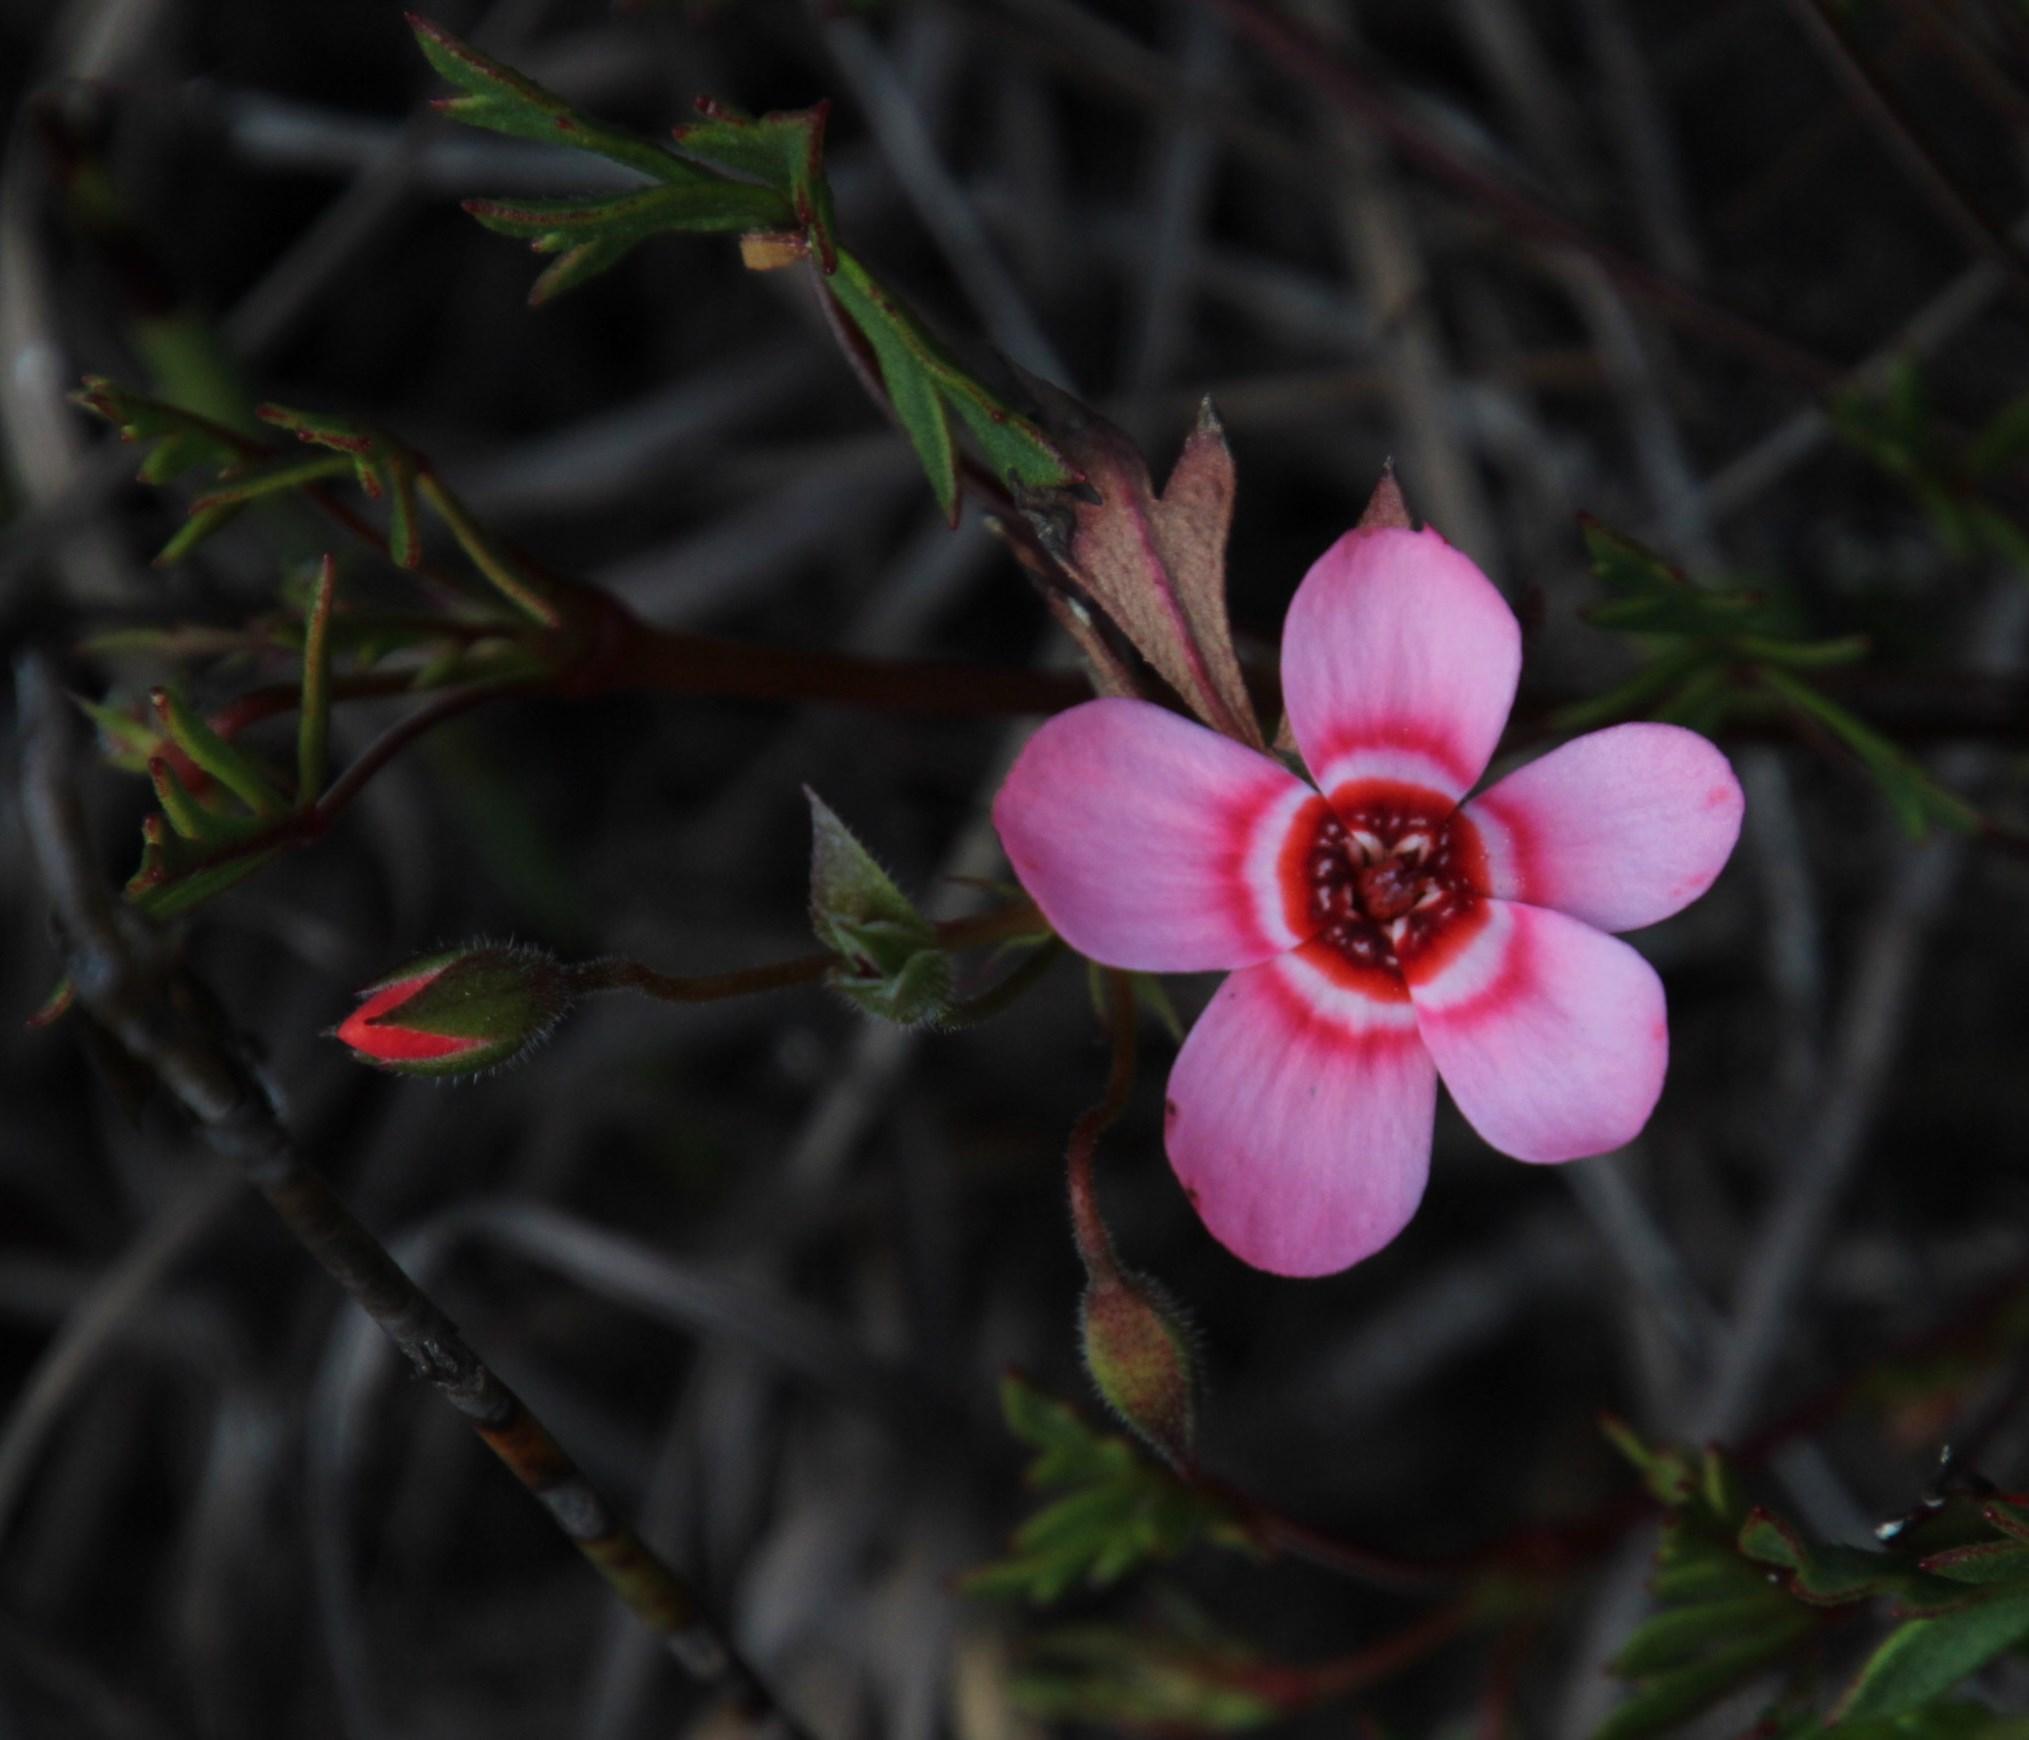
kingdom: Plantae
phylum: Tracheophyta
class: Magnoliopsida
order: Geraniales
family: Geraniaceae
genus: Pelargonium
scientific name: Pelargonium incarnatum
